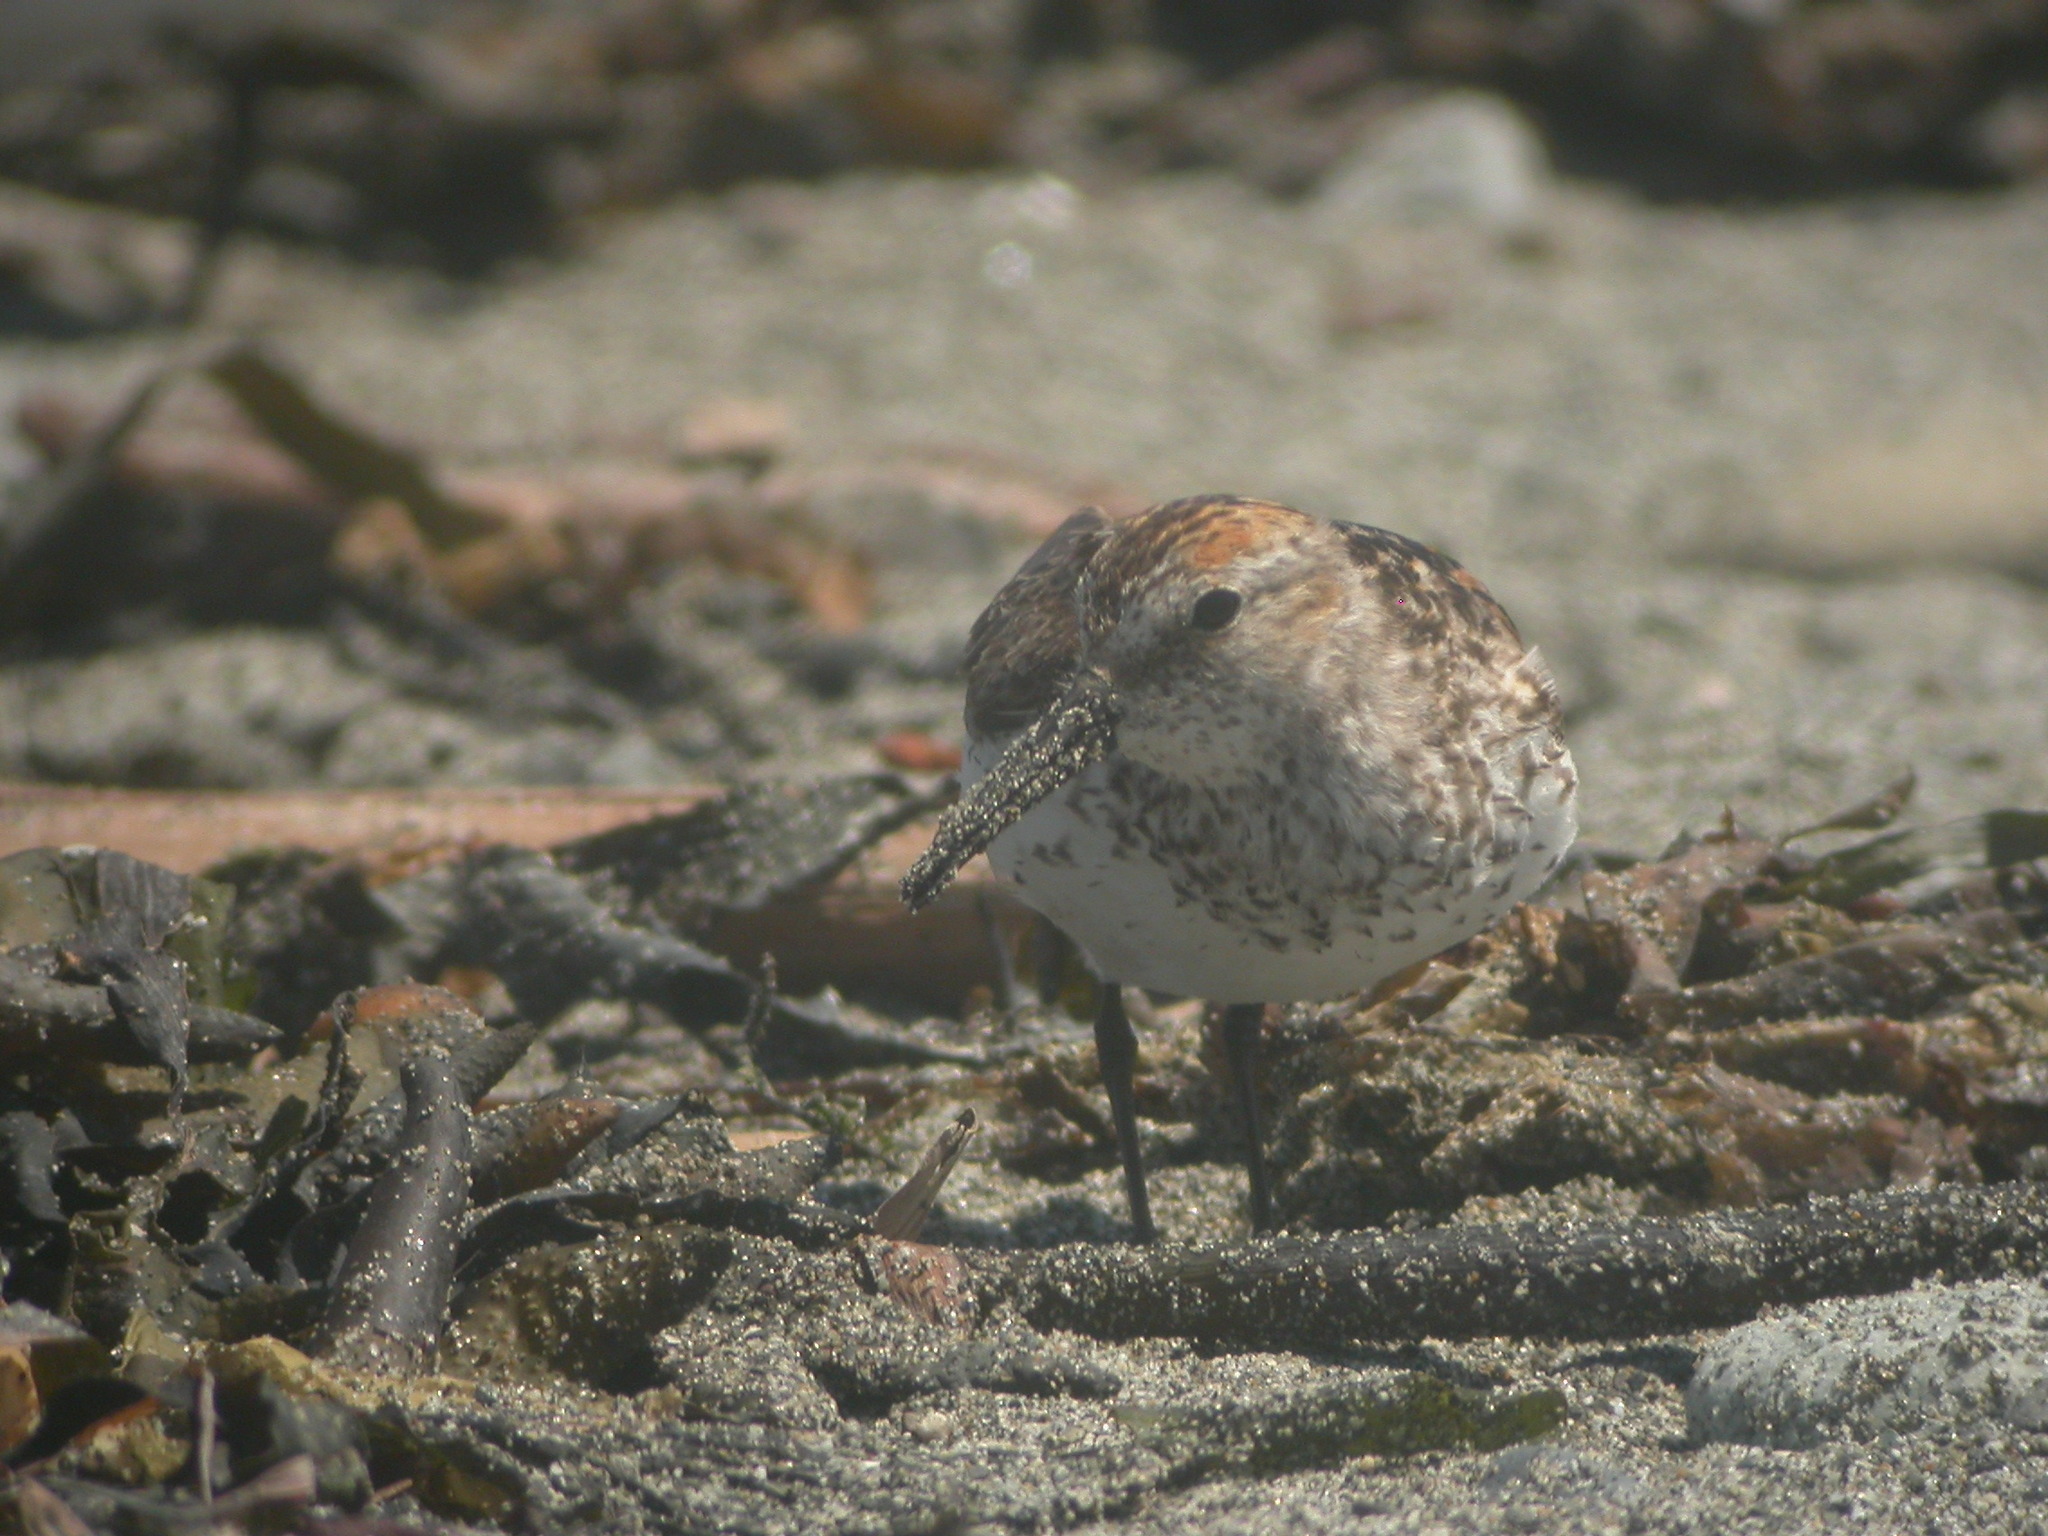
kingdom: Animalia
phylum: Chordata
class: Aves
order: Charadriiformes
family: Scolopacidae
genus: Calidris
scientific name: Calidris mauri
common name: Western sandpiper
